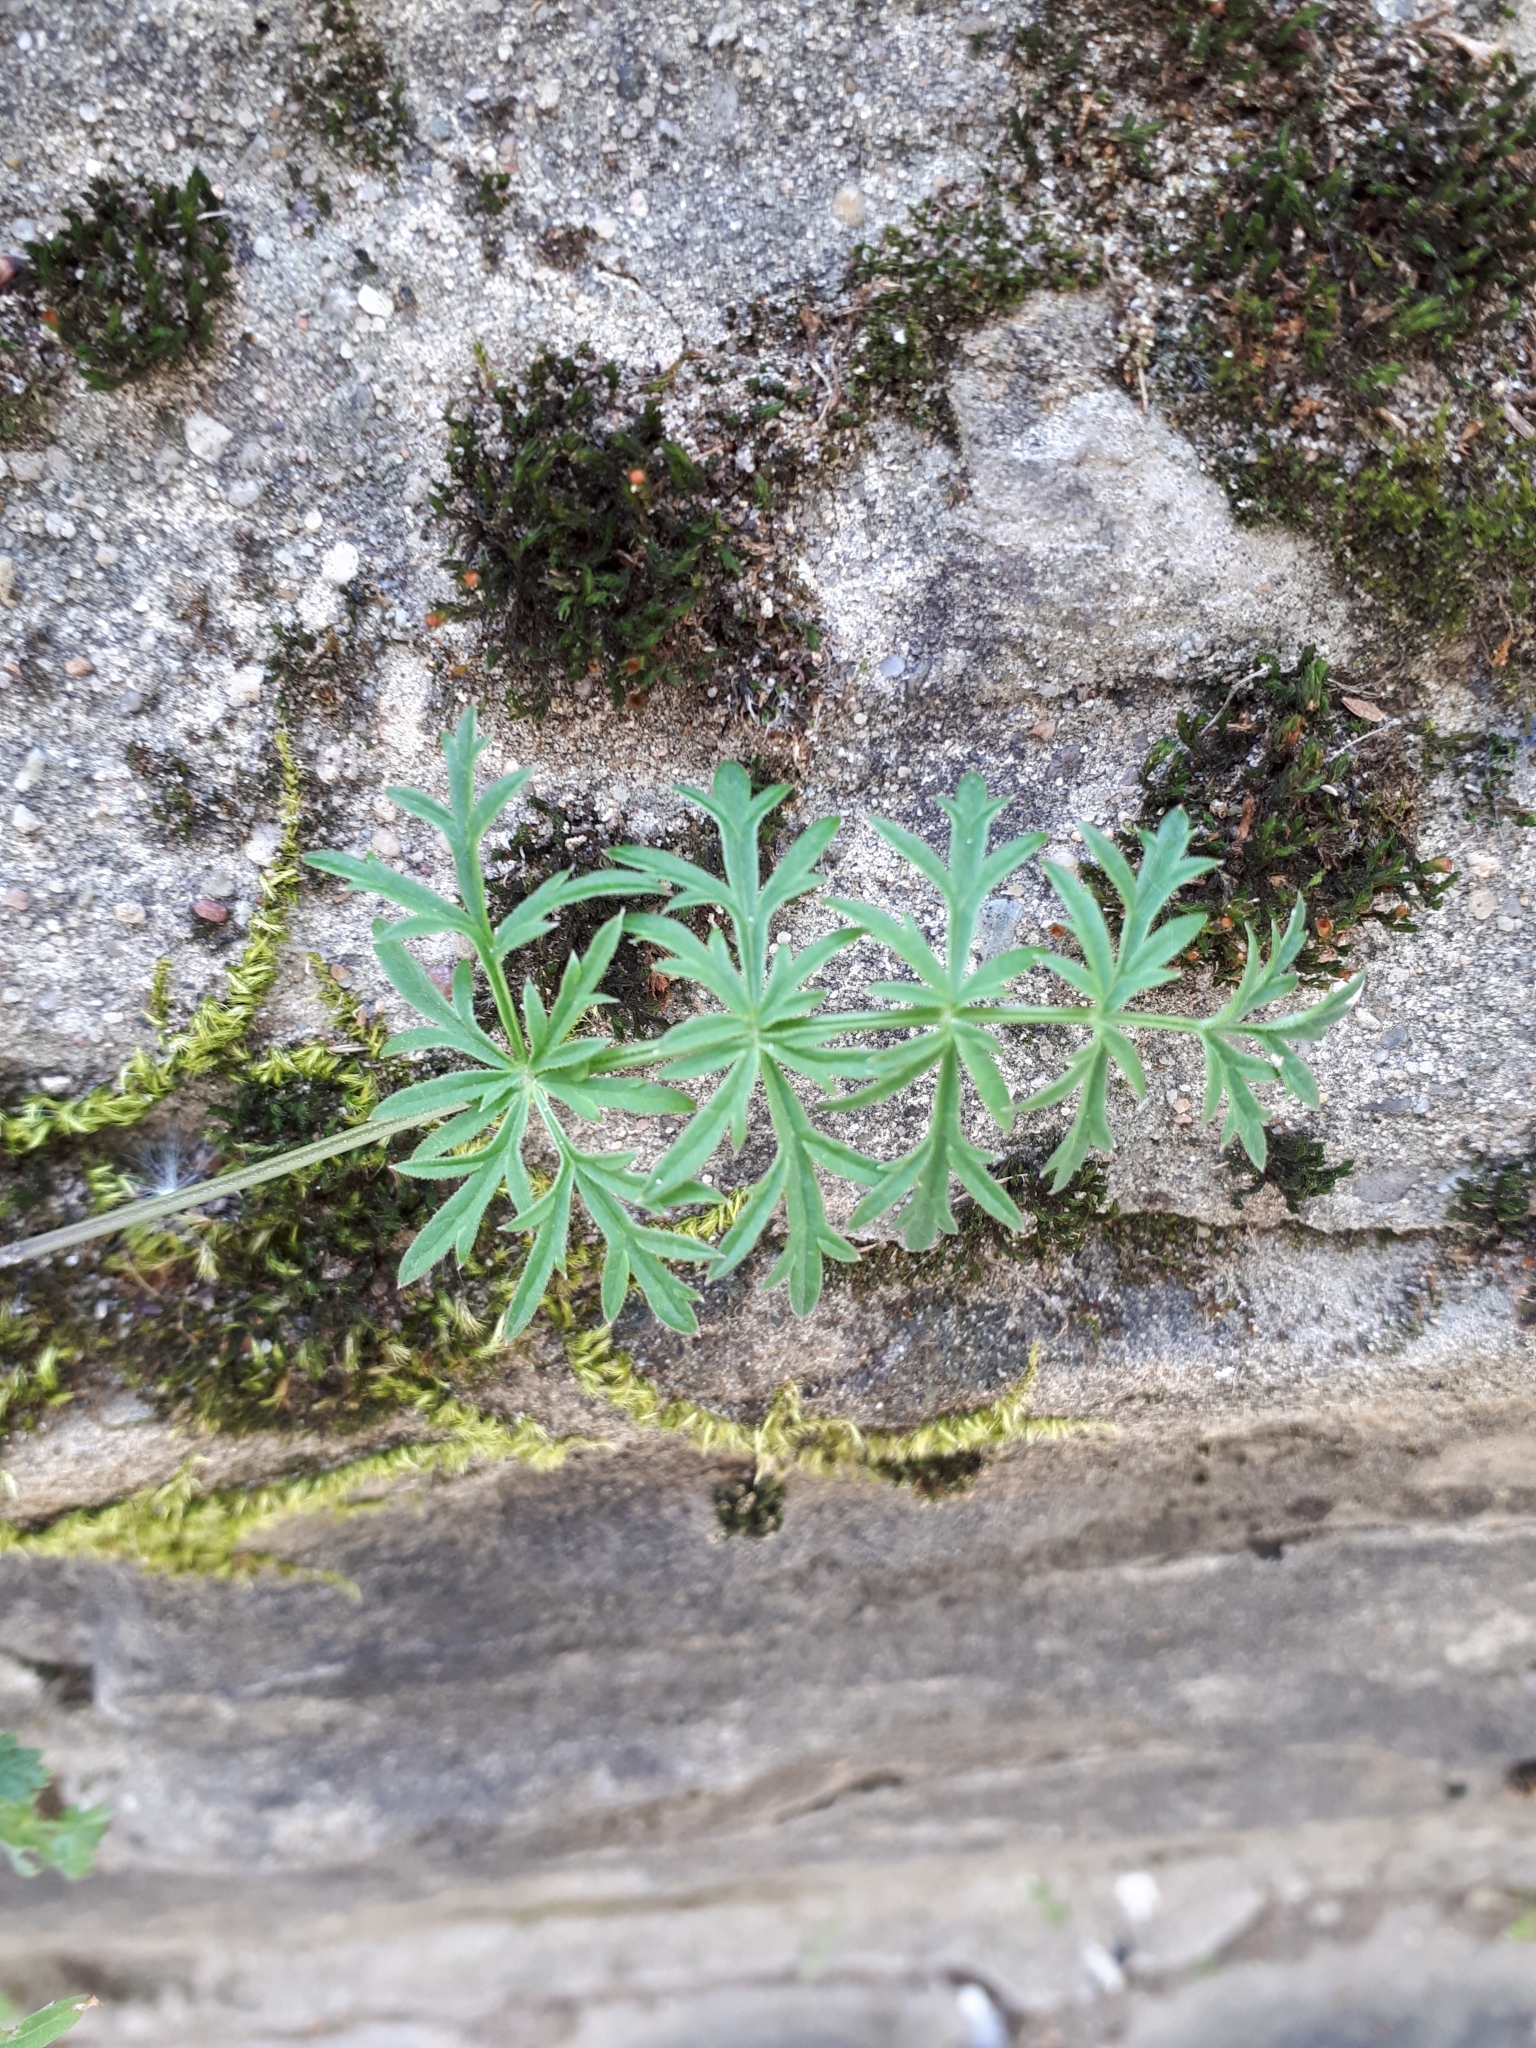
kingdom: Plantae
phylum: Tracheophyta
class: Magnoliopsida
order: Apiales
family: Apiaceae
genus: Pimpinella
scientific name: Pimpinella saxifraga
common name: Burnet-saxifrage
